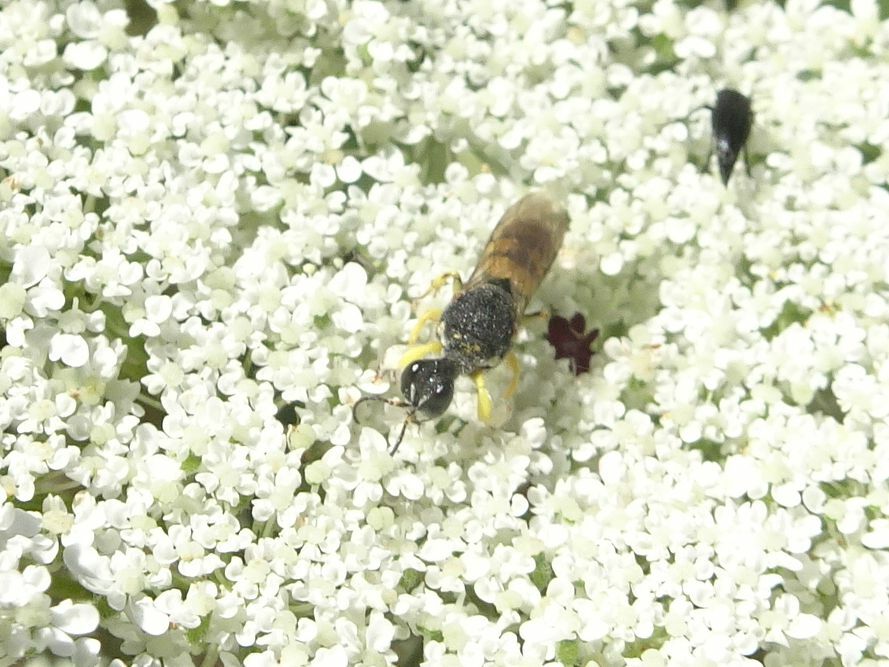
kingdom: Animalia
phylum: Arthropoda
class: Insecta
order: Hymenoptera
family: Crabronidae
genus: Lestica
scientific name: Lestica clypeata
